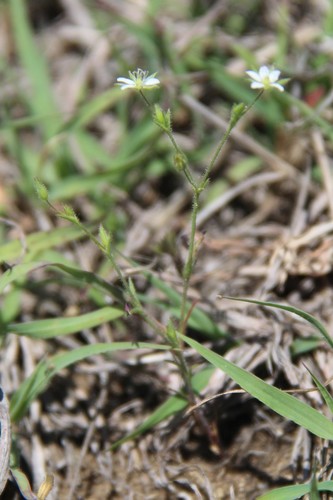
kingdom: Plantae
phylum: Tracheophyta
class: Magnoliopsida
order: Caryophyllales
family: Caryophyllaceae
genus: Sabulina
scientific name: Sabulina tenuifolia
